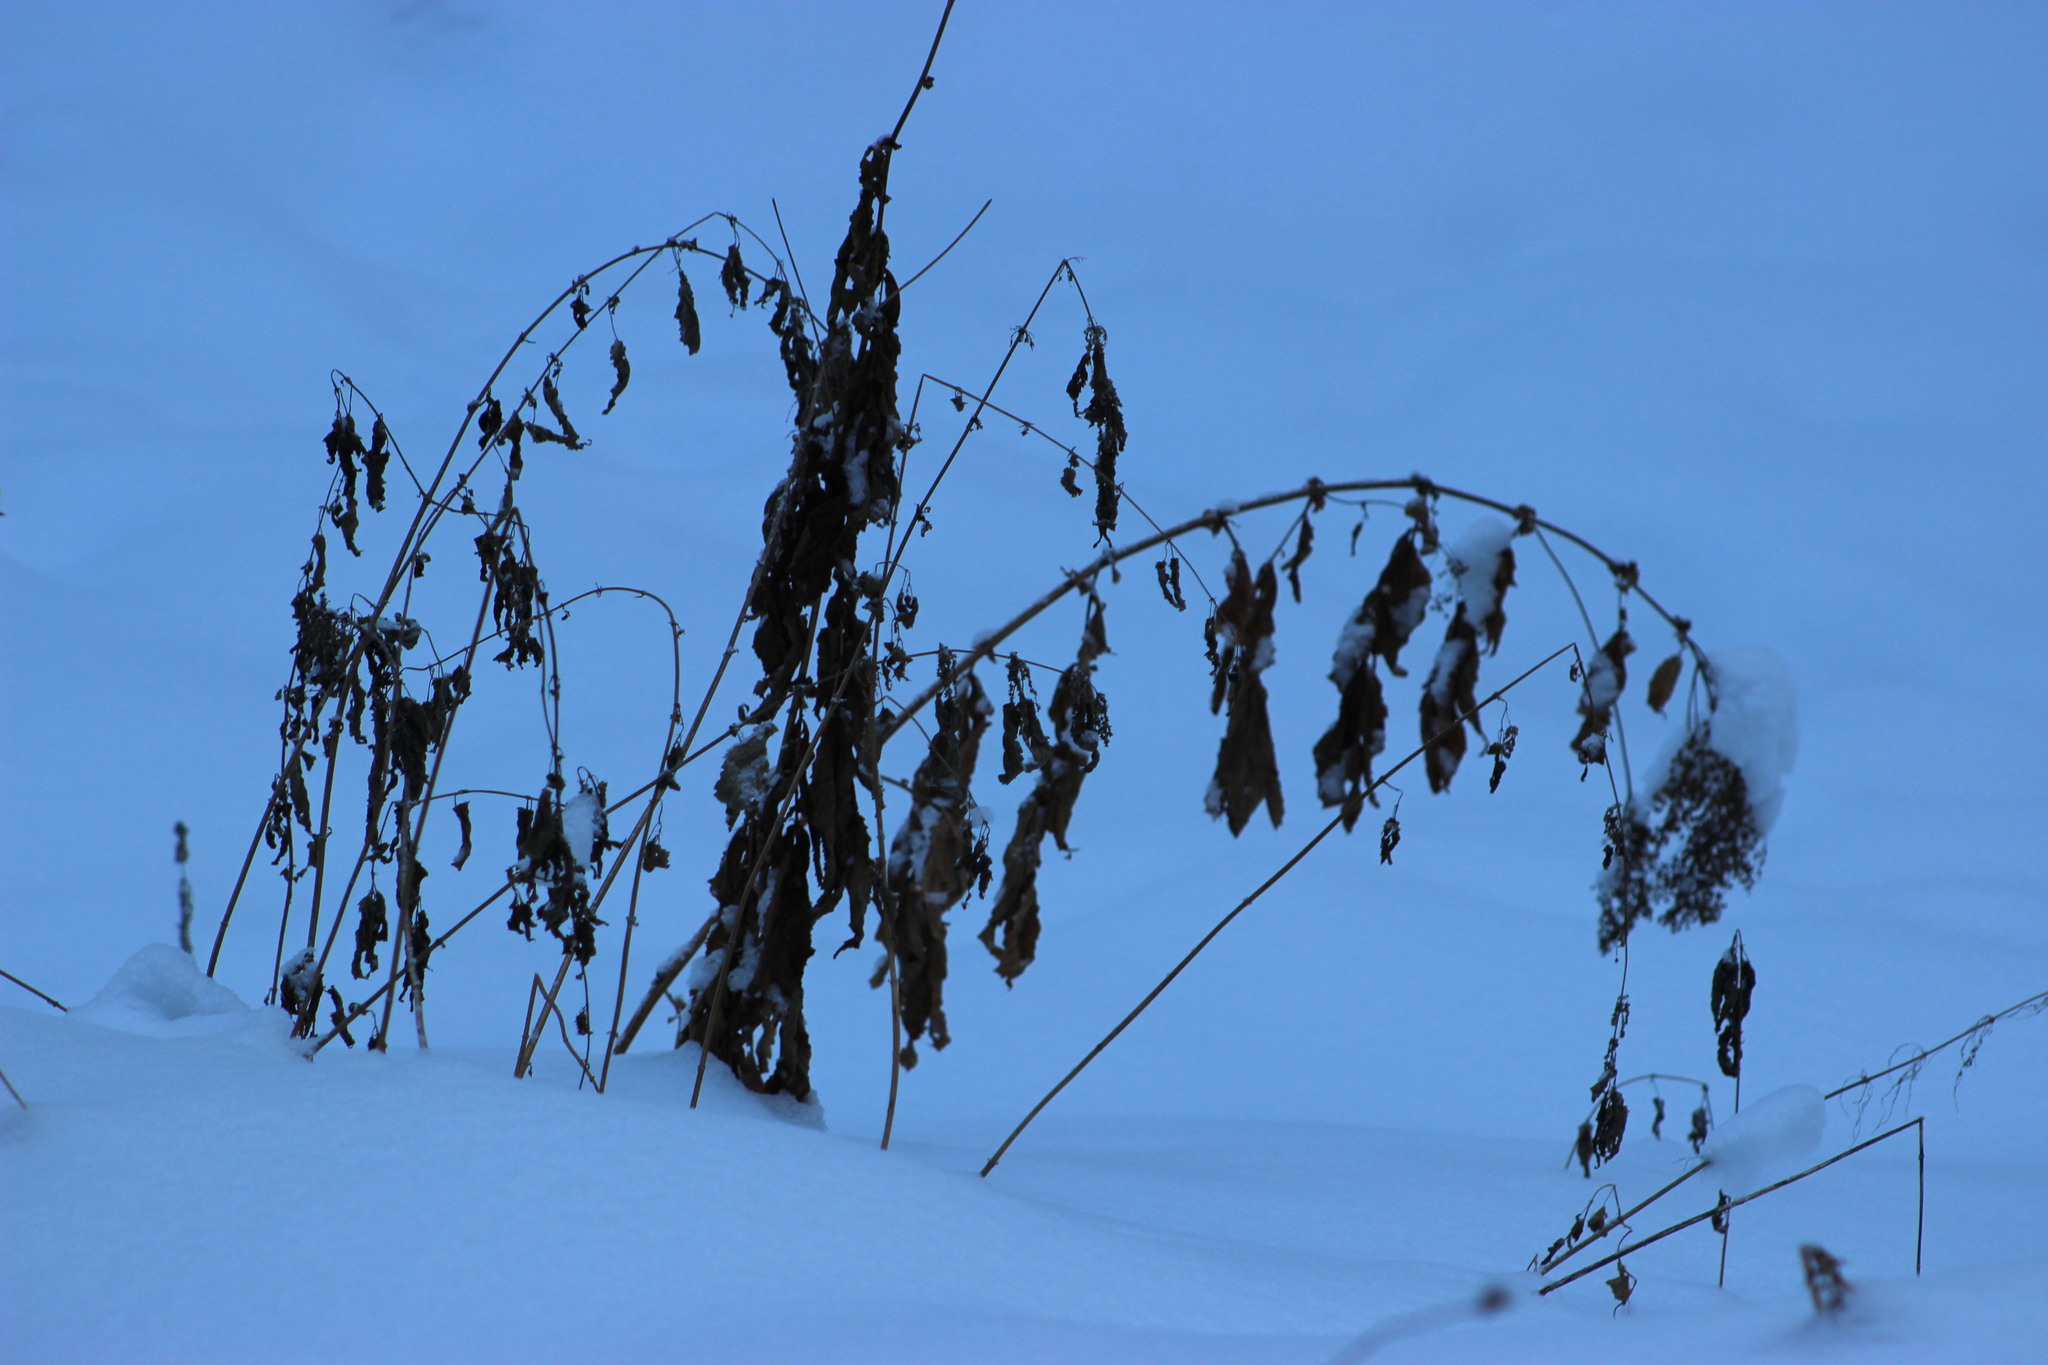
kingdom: Plantae
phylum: Tracheophyta
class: Magnoliopsida
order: Rosales
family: Urticaceae
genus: Urtica
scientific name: Urtica dioica
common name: Common nettle
